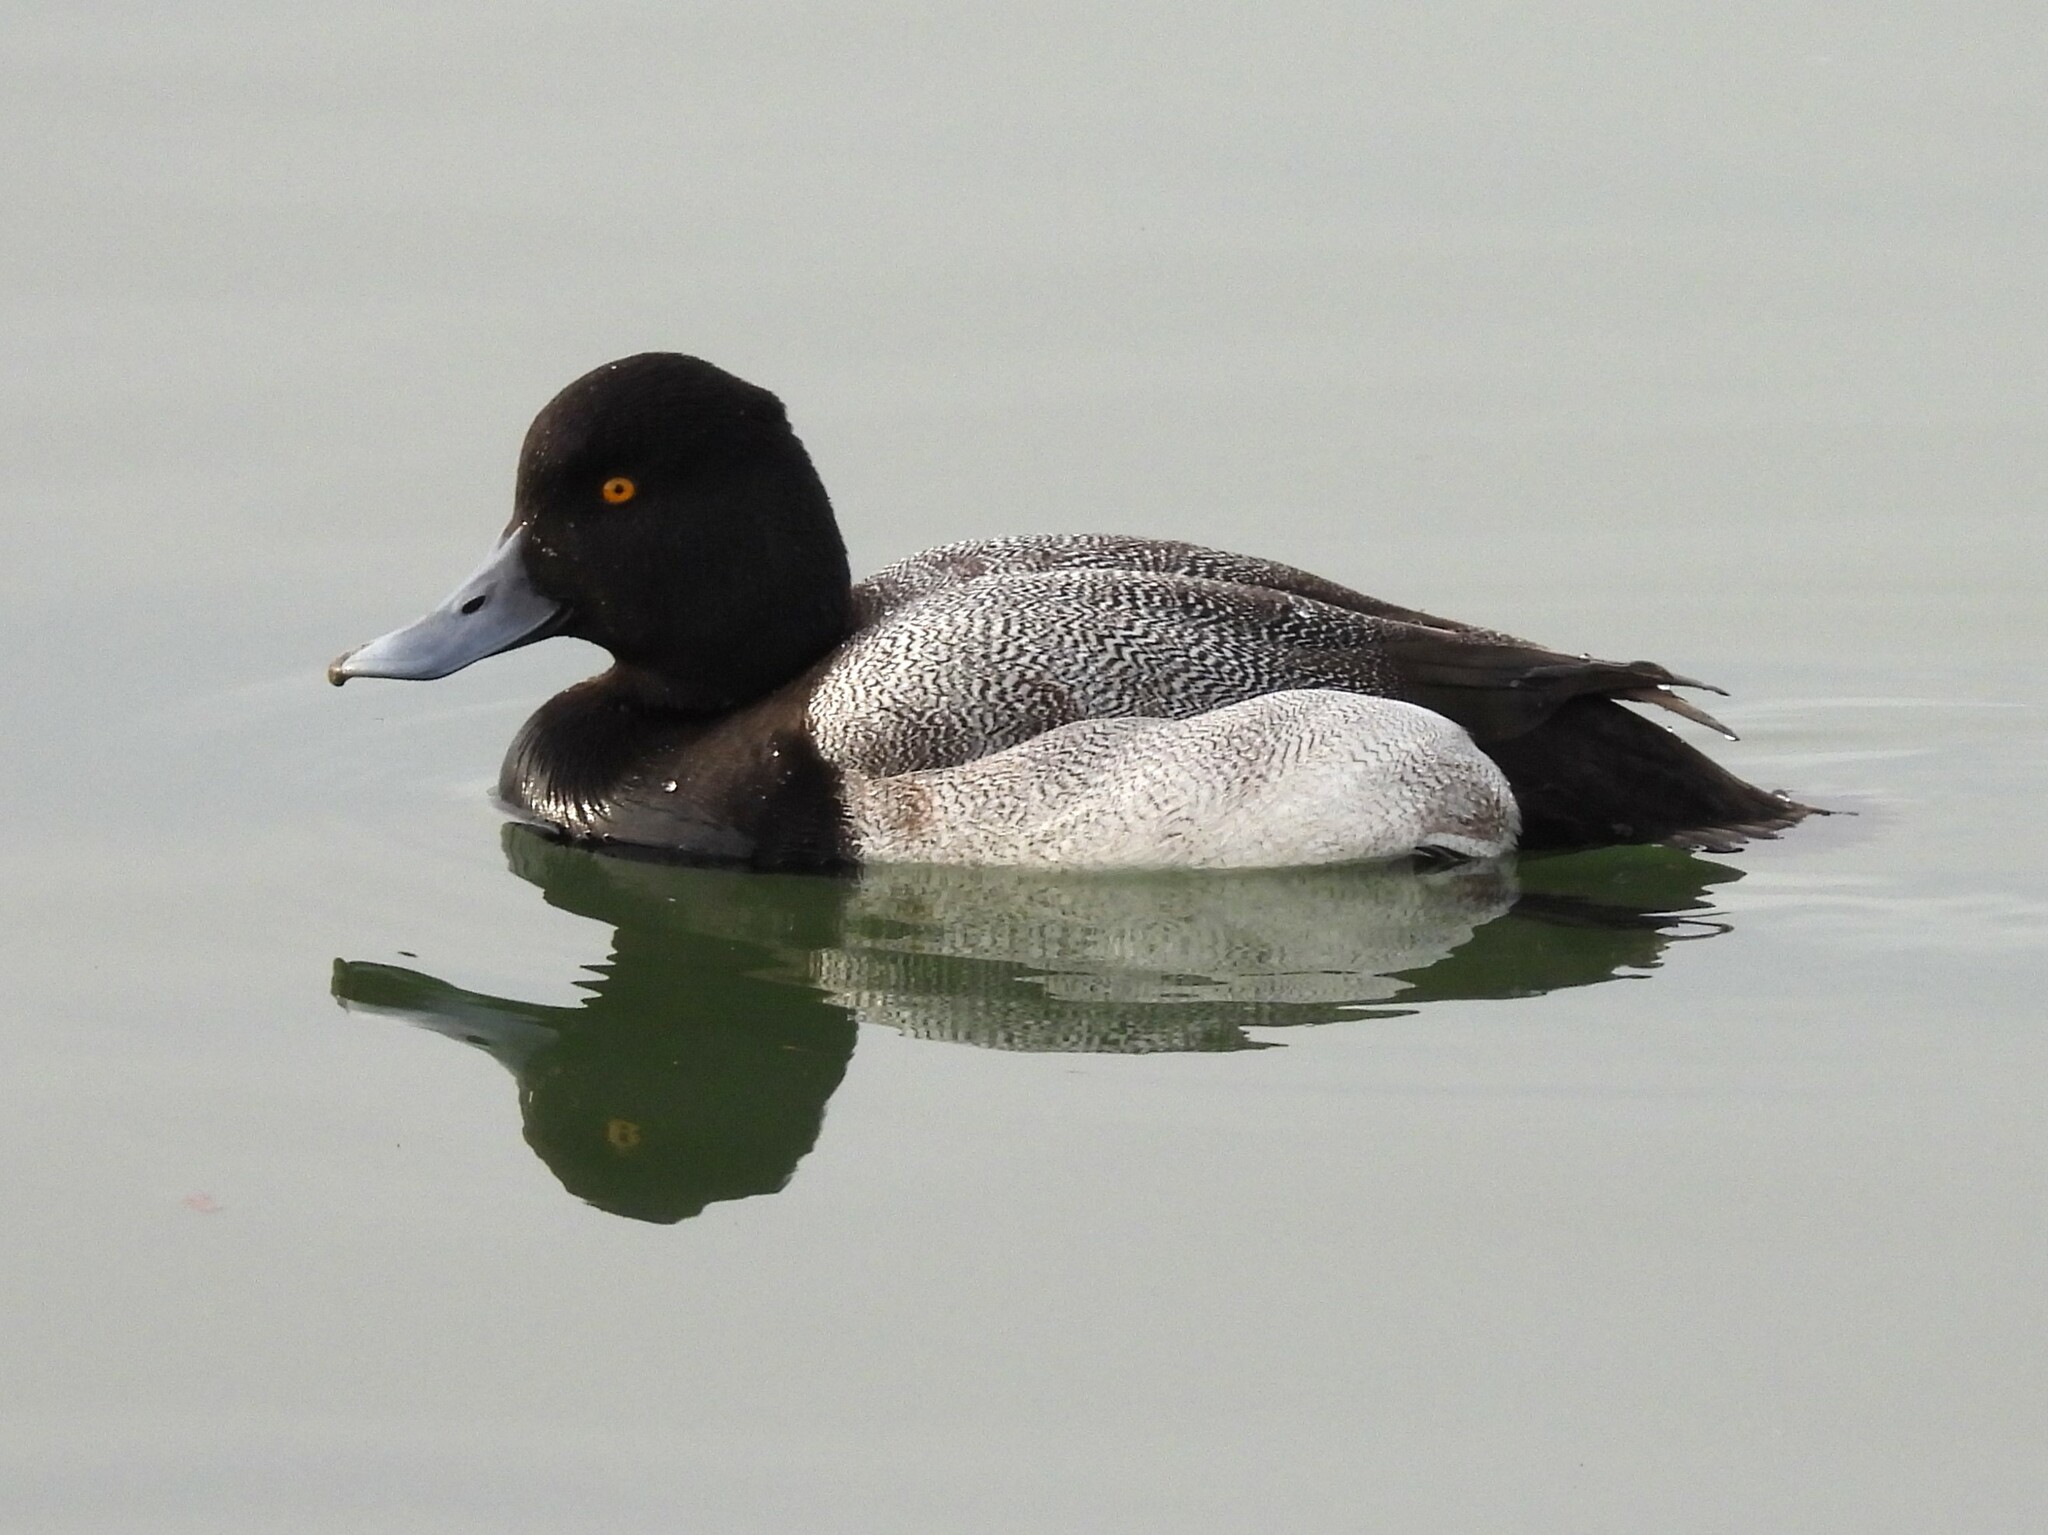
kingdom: Animalia
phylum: Chordata
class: Aves
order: Anseriformes
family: Anatidae
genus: Aythya
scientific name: Aythya affinis
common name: Lesser scaup
